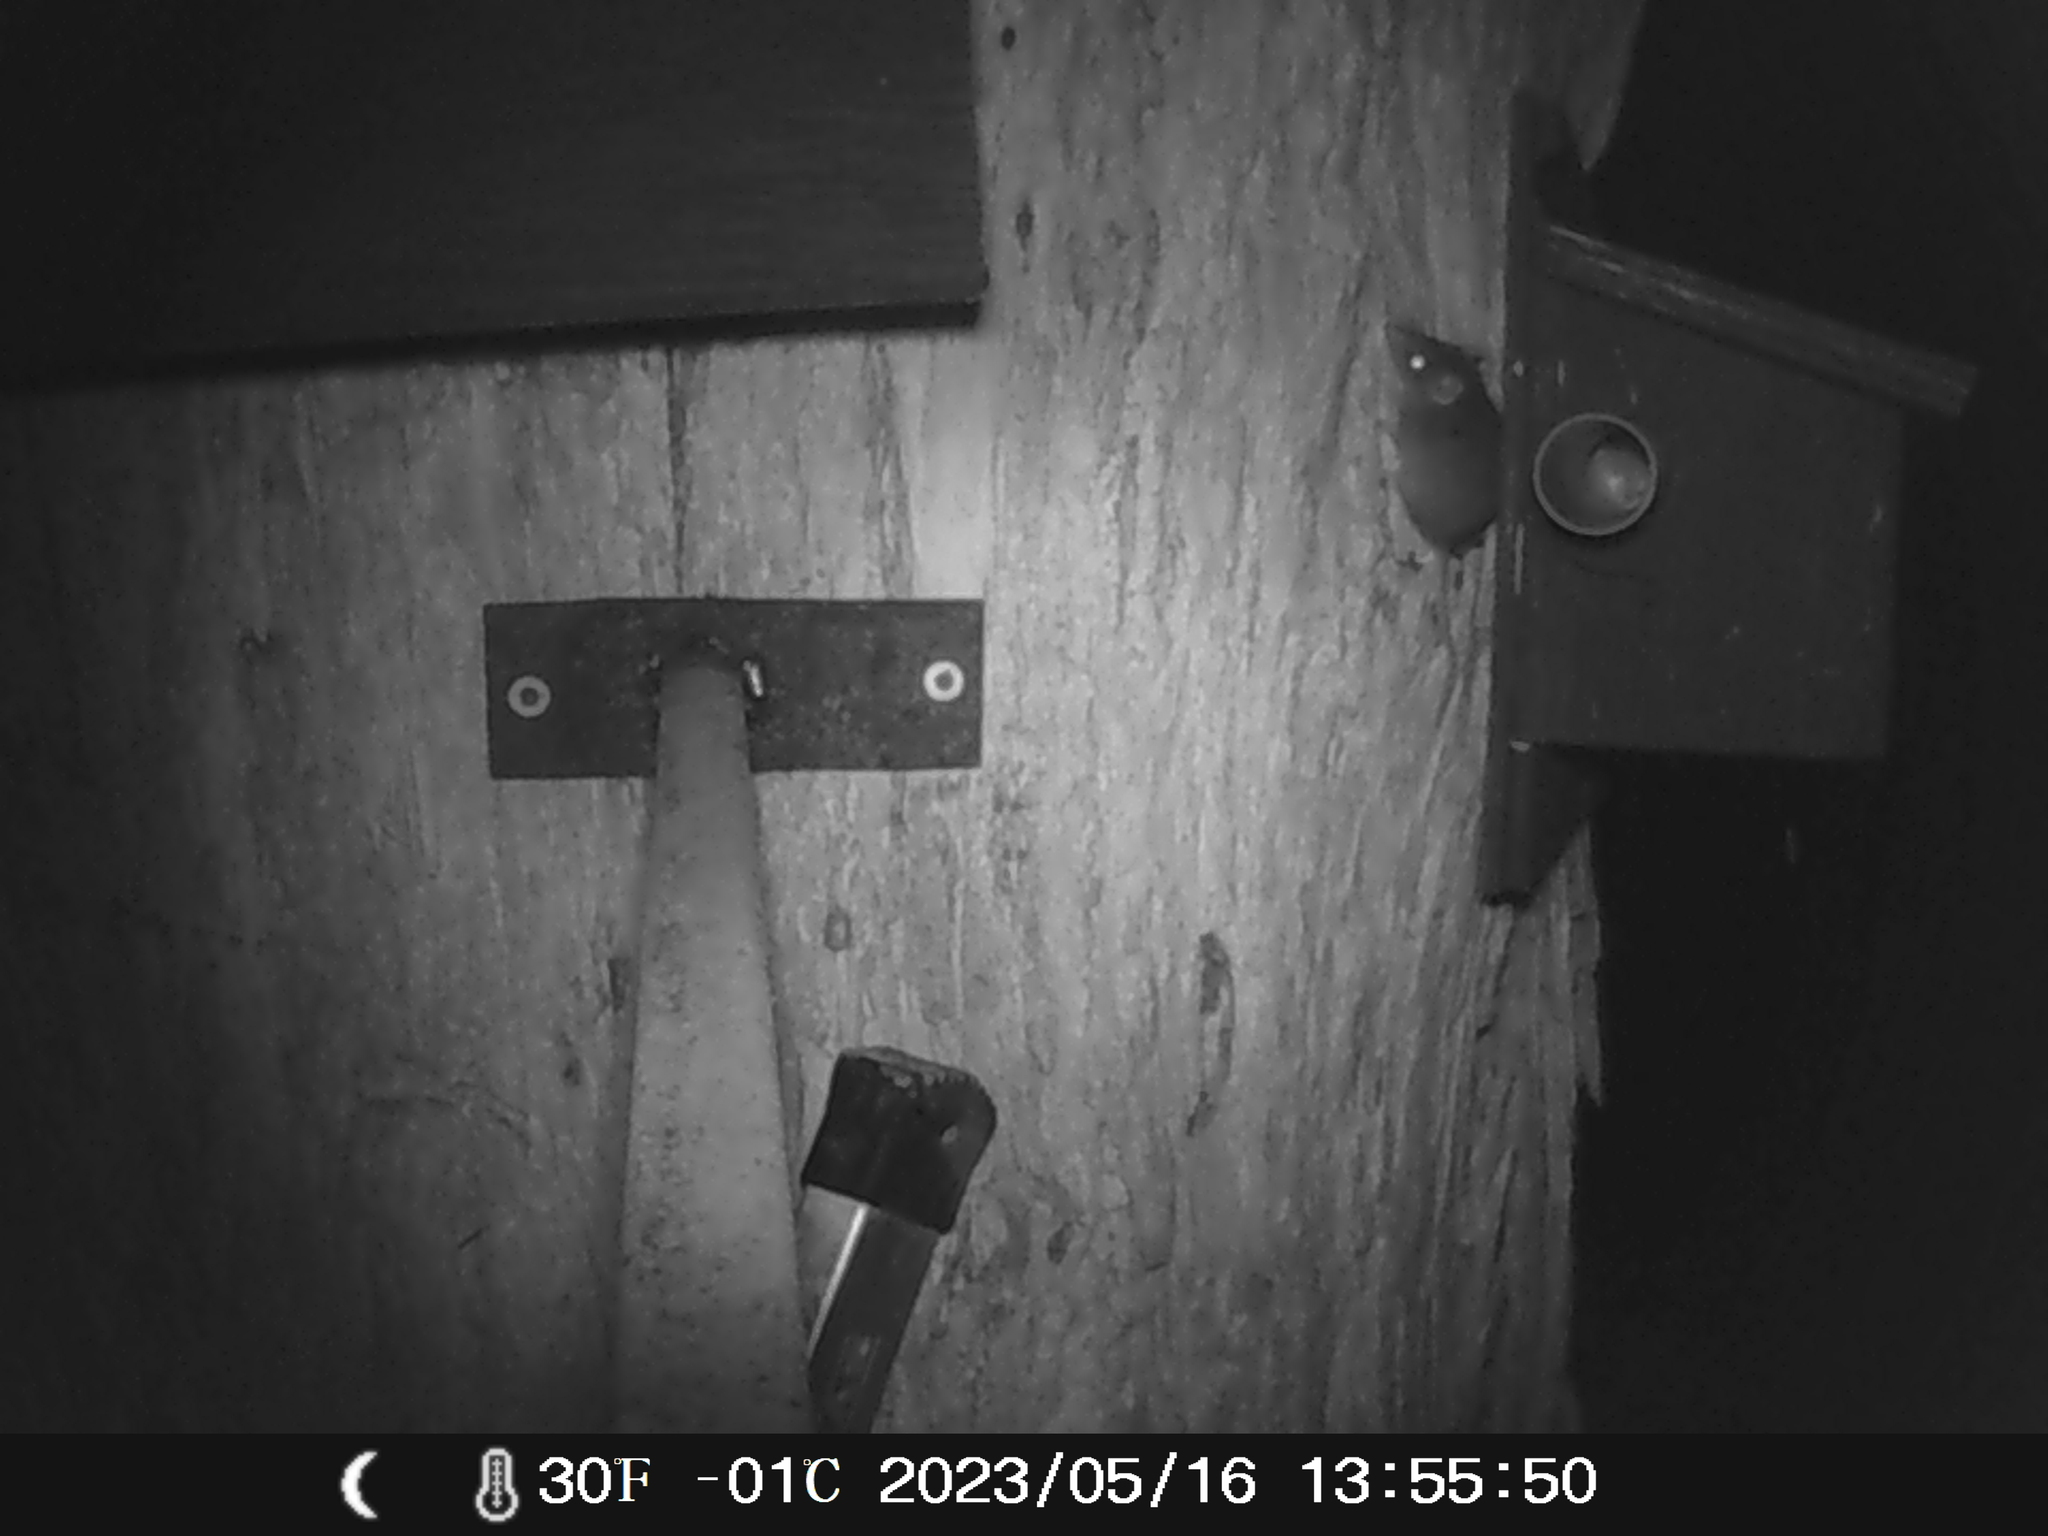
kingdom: Animalia
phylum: Chordata
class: Mammalia
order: Dasyuromorphia
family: Dasyuridae
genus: Antechinus
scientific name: Antechinus agilis
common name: Agile antechinus
